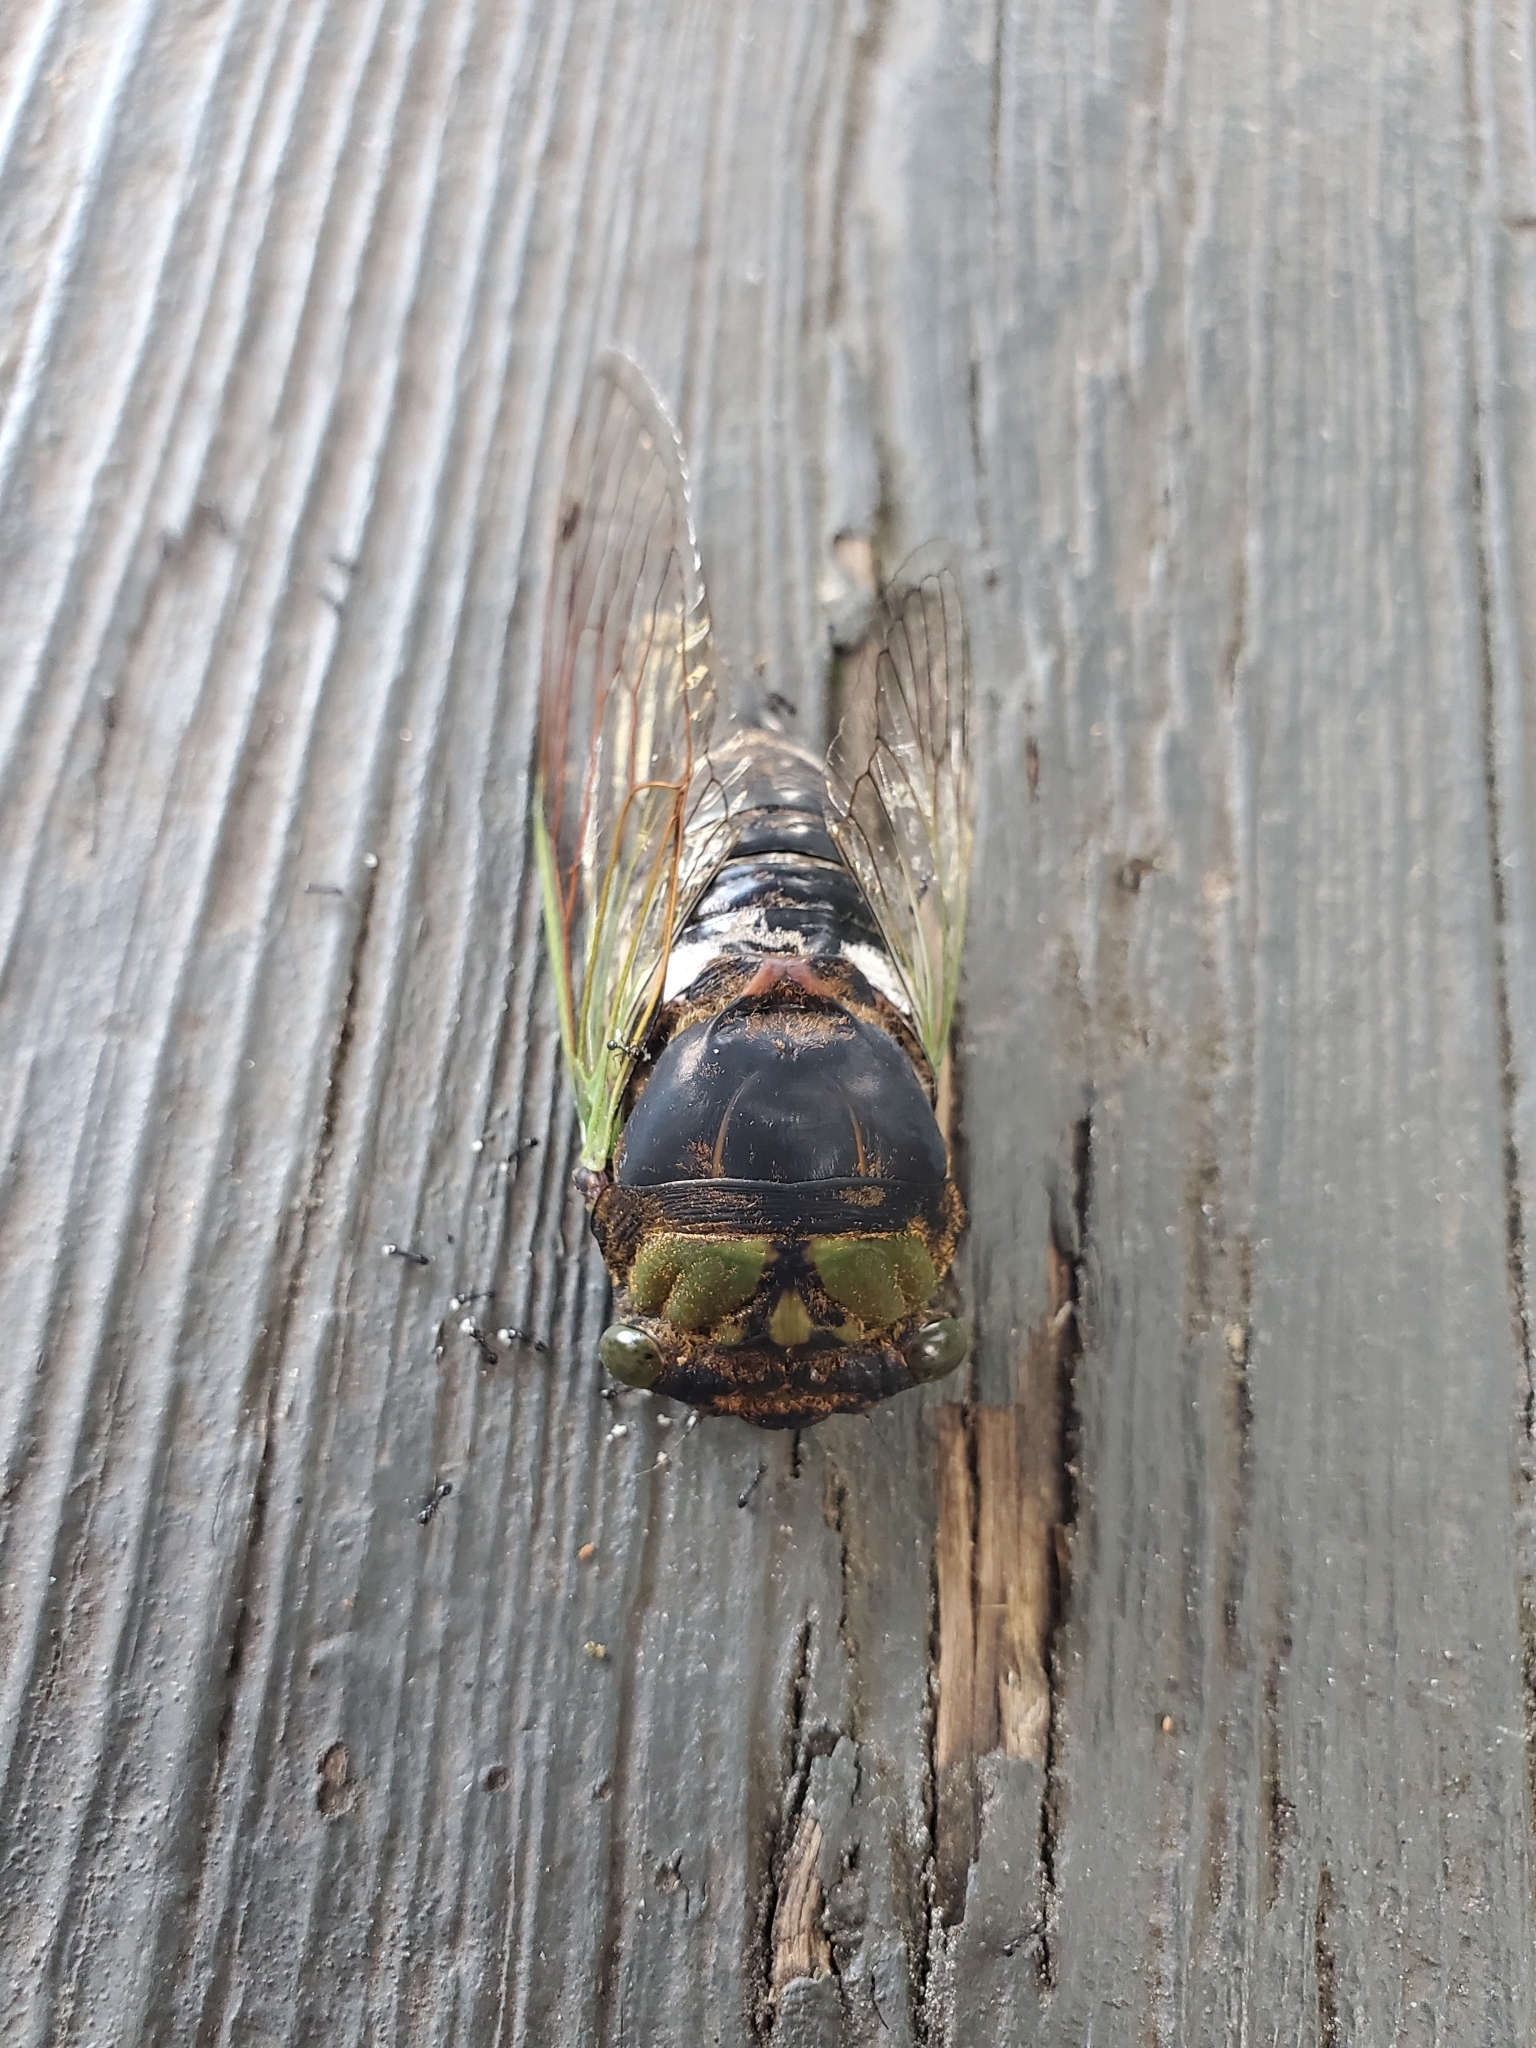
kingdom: Animalia
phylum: Arthropoda
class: Insecta
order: Hemiptera
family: Cicadidae
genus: Neotibicen
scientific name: Neotibicen tibicen
